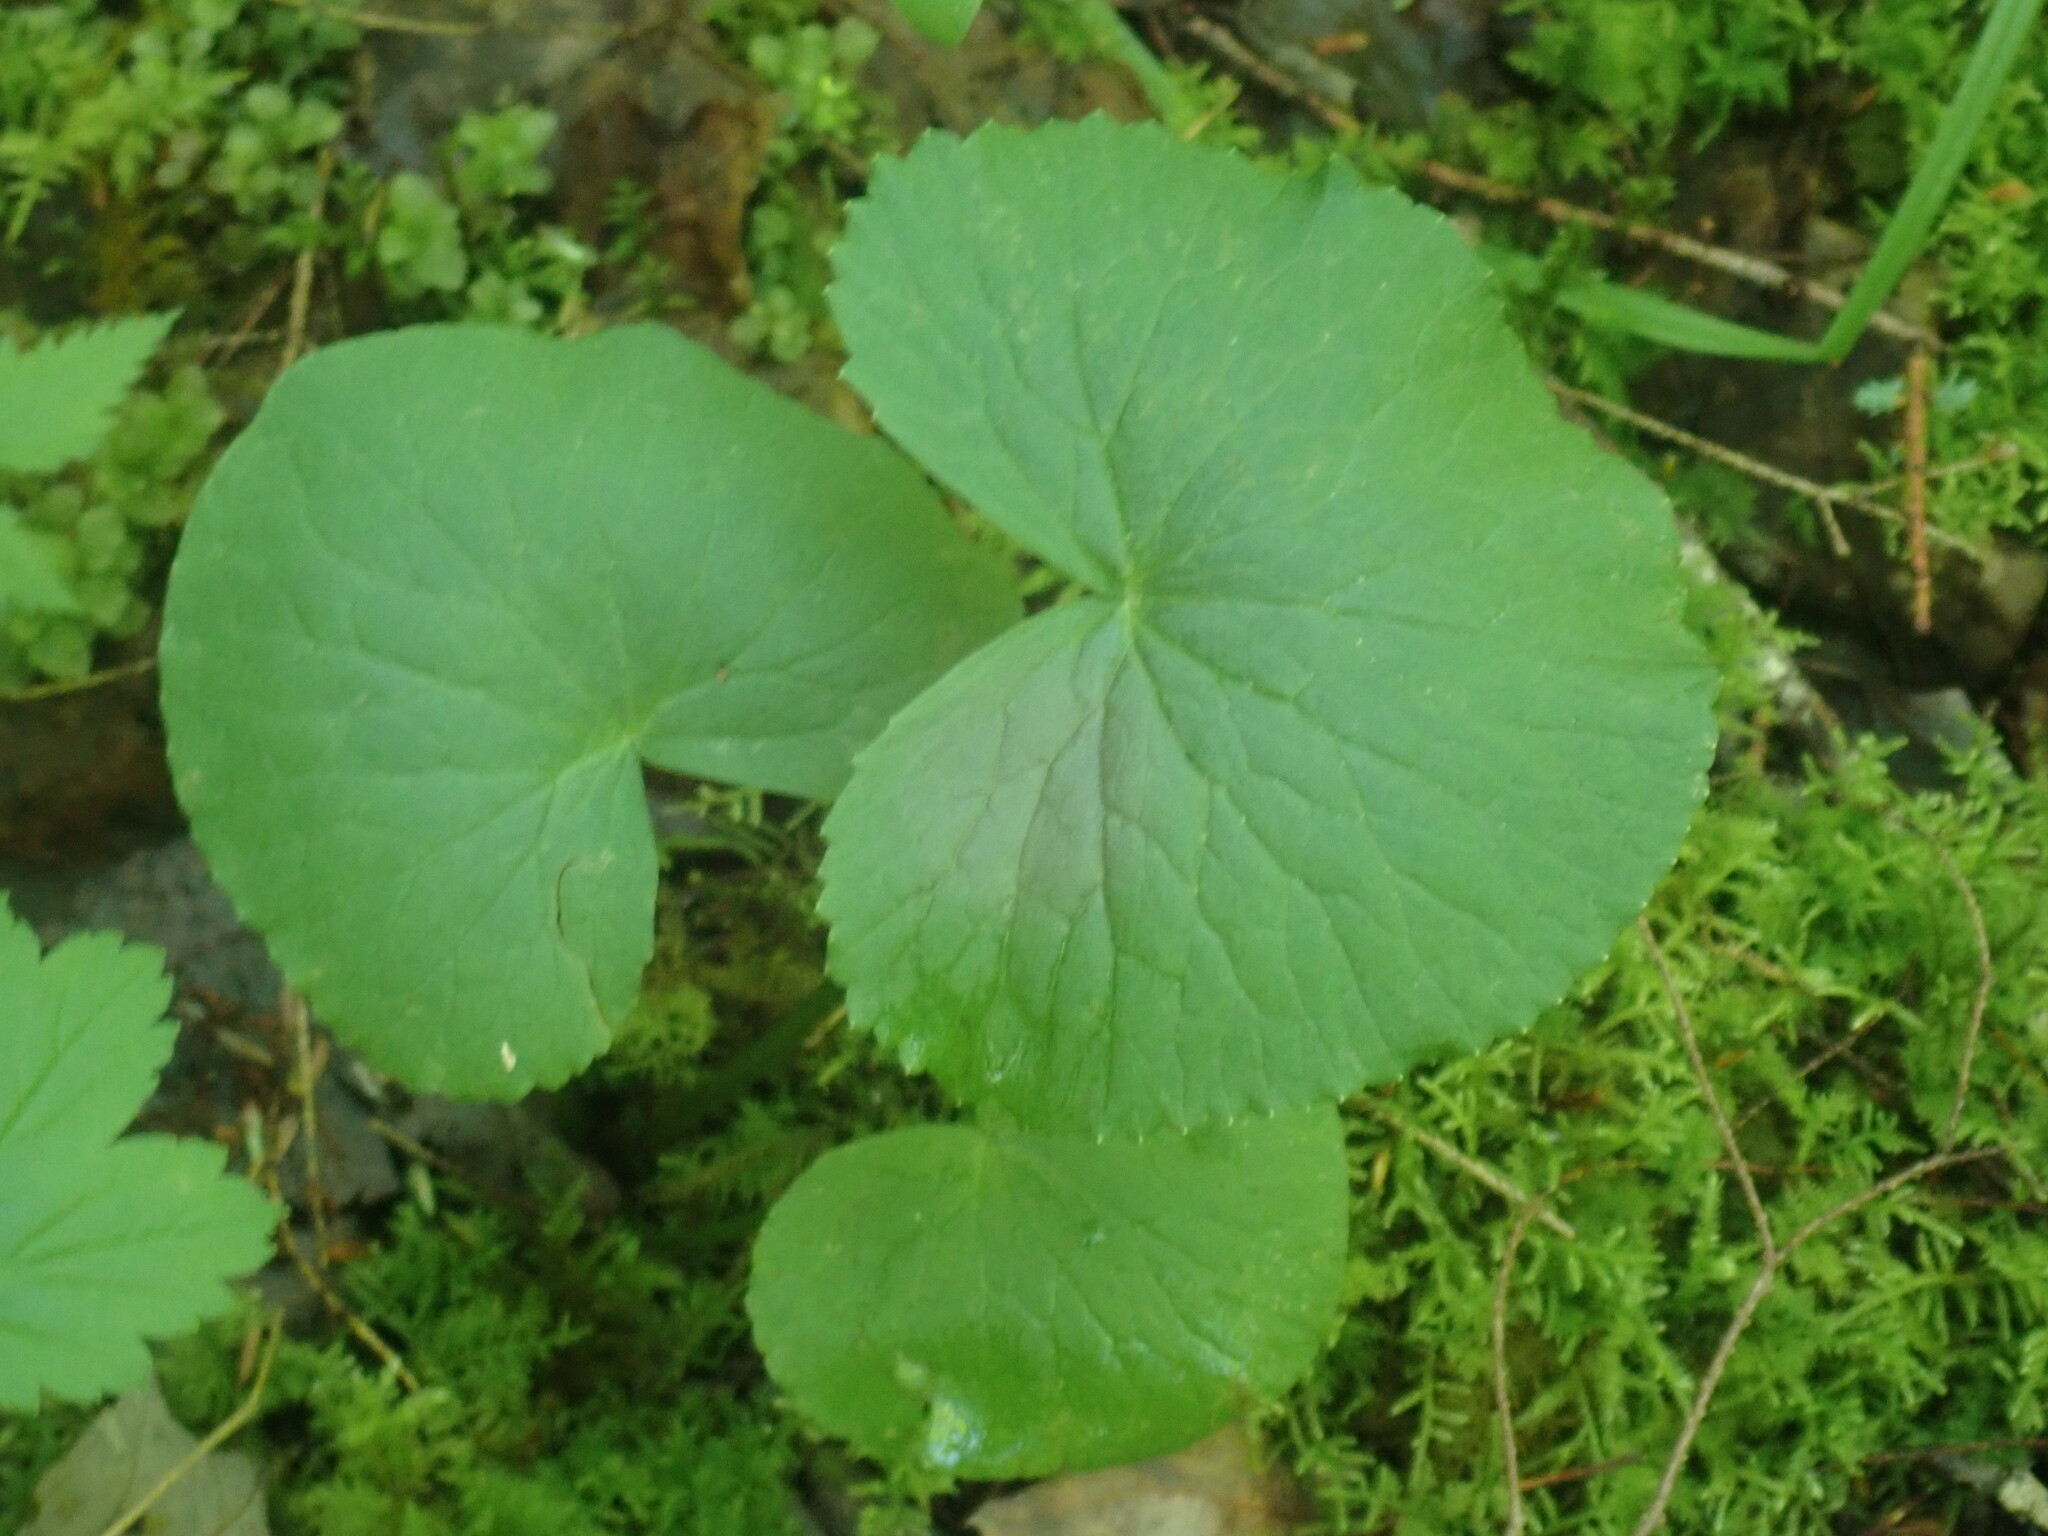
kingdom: Plantae
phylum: Tracheophyta
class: Magnoliopsida
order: Ranunculales
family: Ranunculaceae
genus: Caltha
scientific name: Caltha palustris
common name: Marsh marigold
